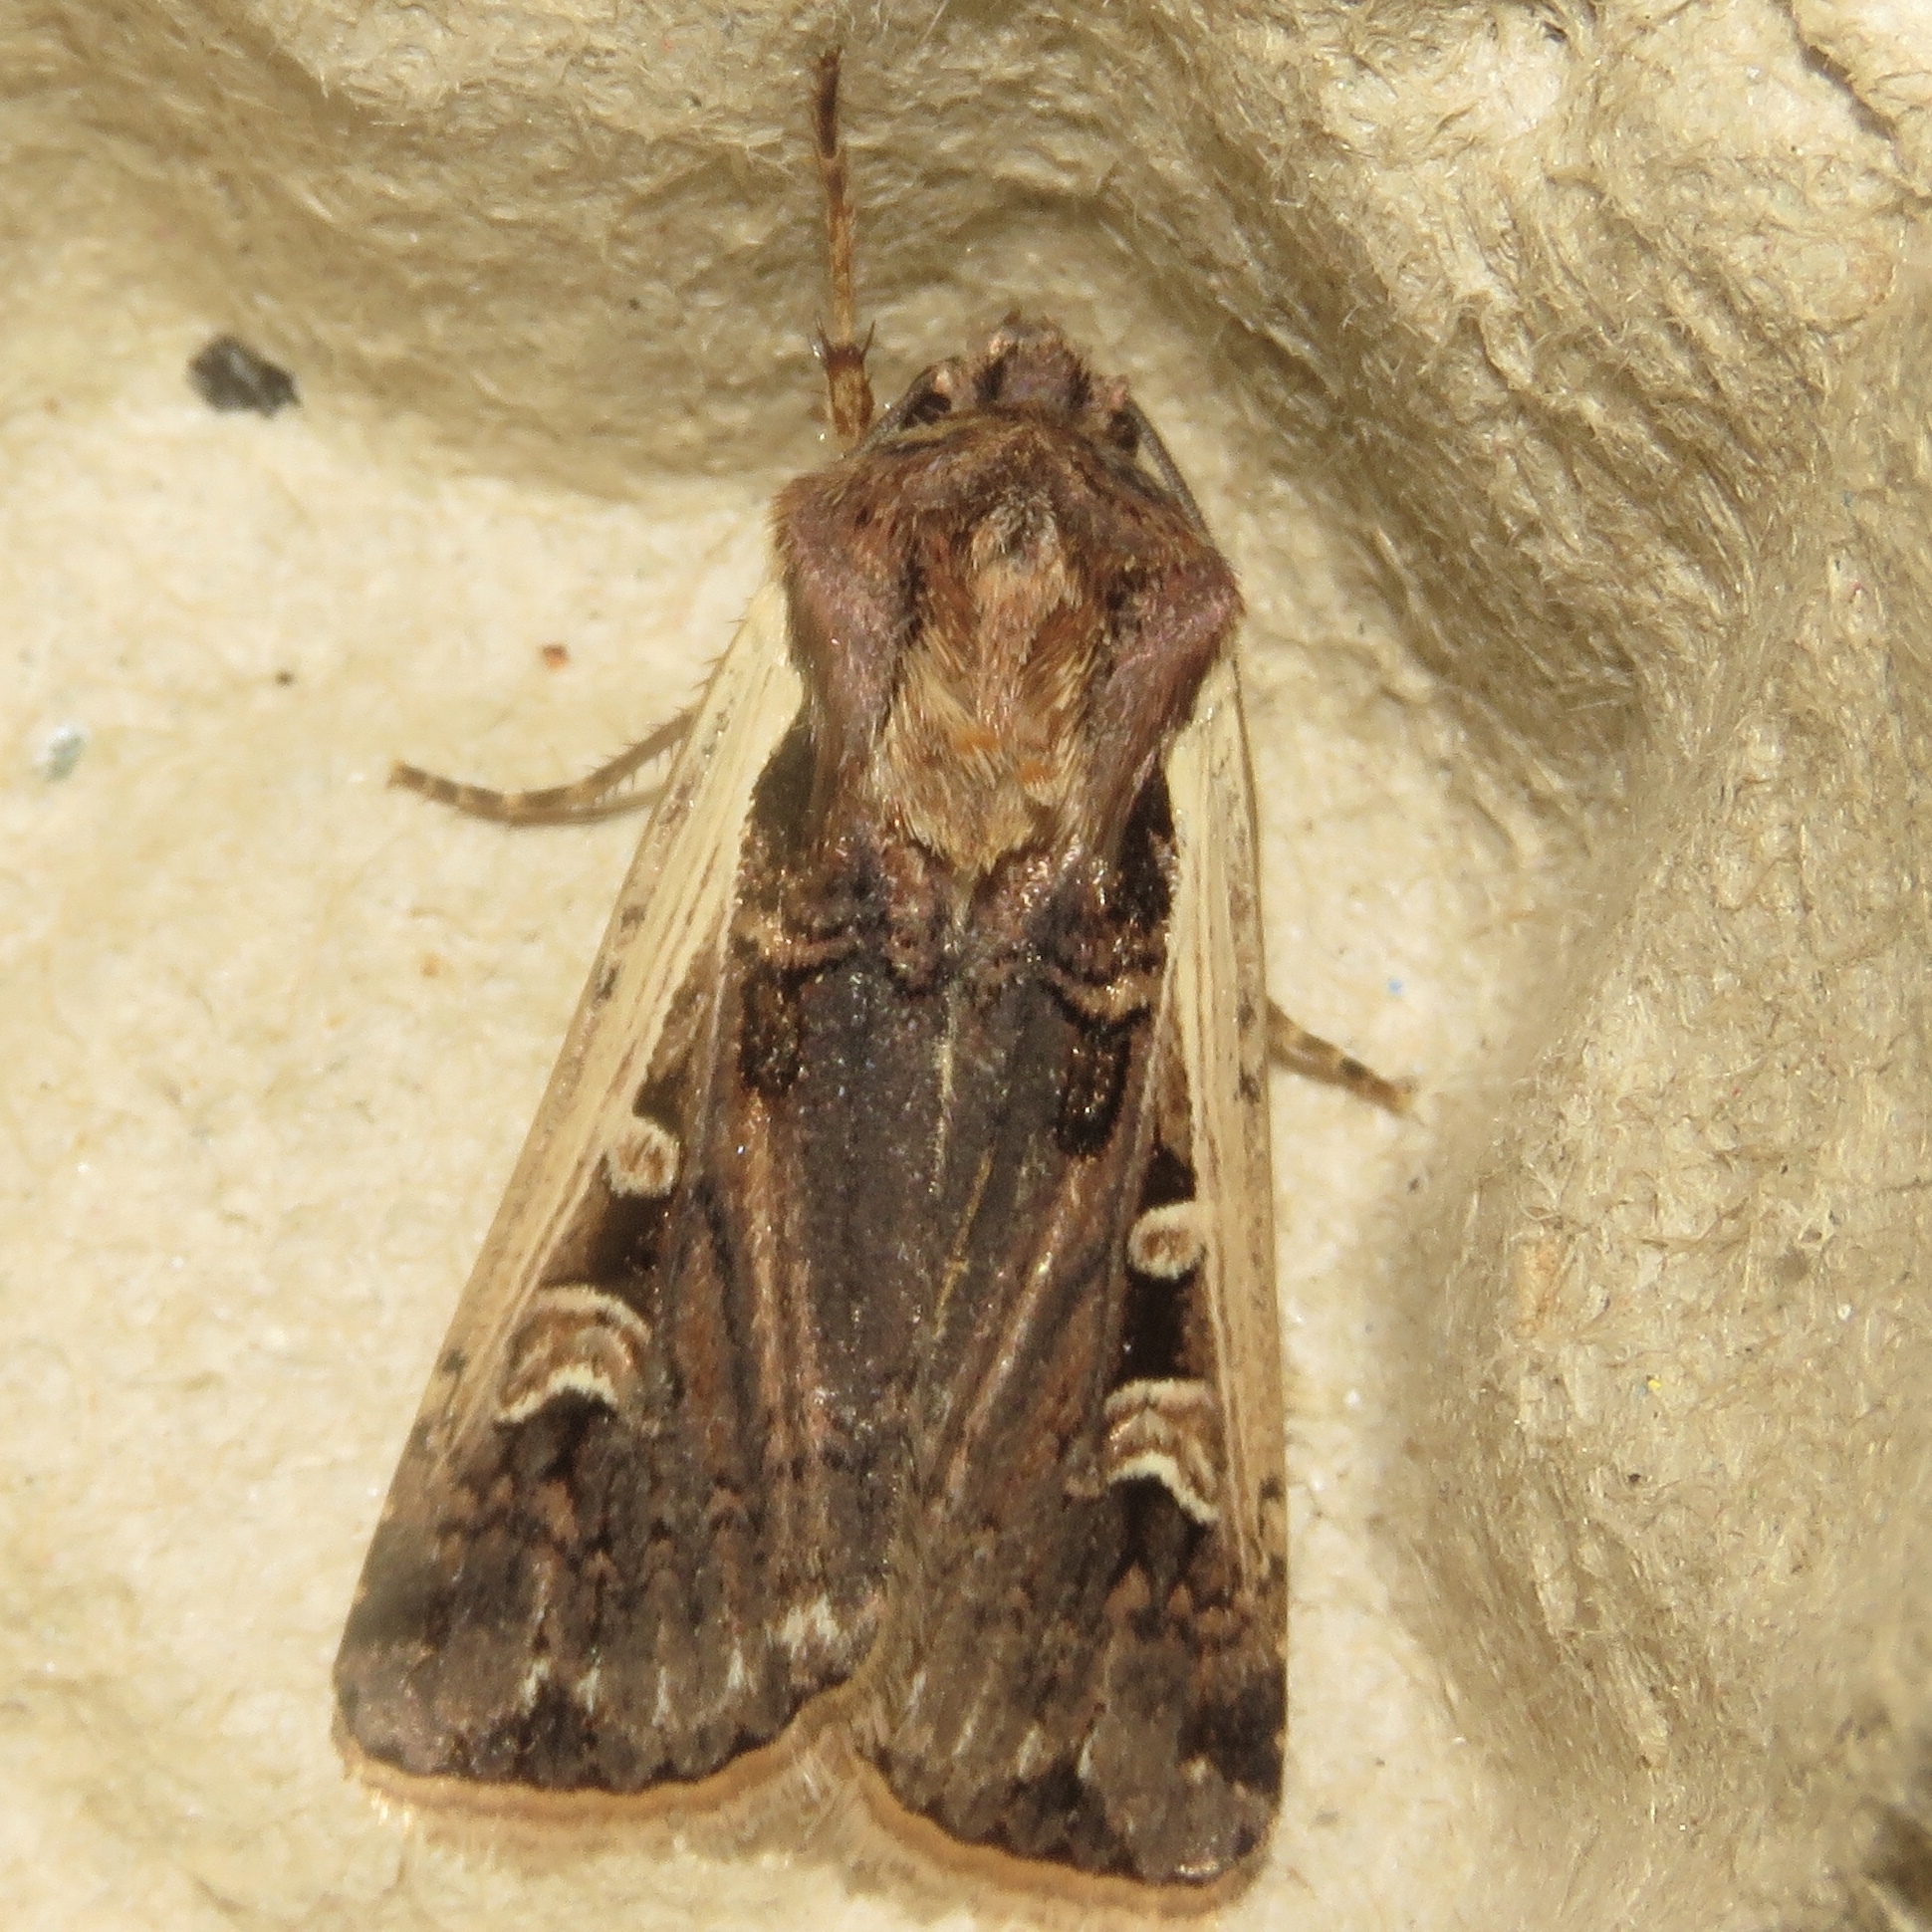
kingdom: Animalia
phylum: Arthropoda
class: Insecta
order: Lepidoptera
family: Noctuidae
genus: Striacosta
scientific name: Striacosta albicosta
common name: Western bean cutworm moth
